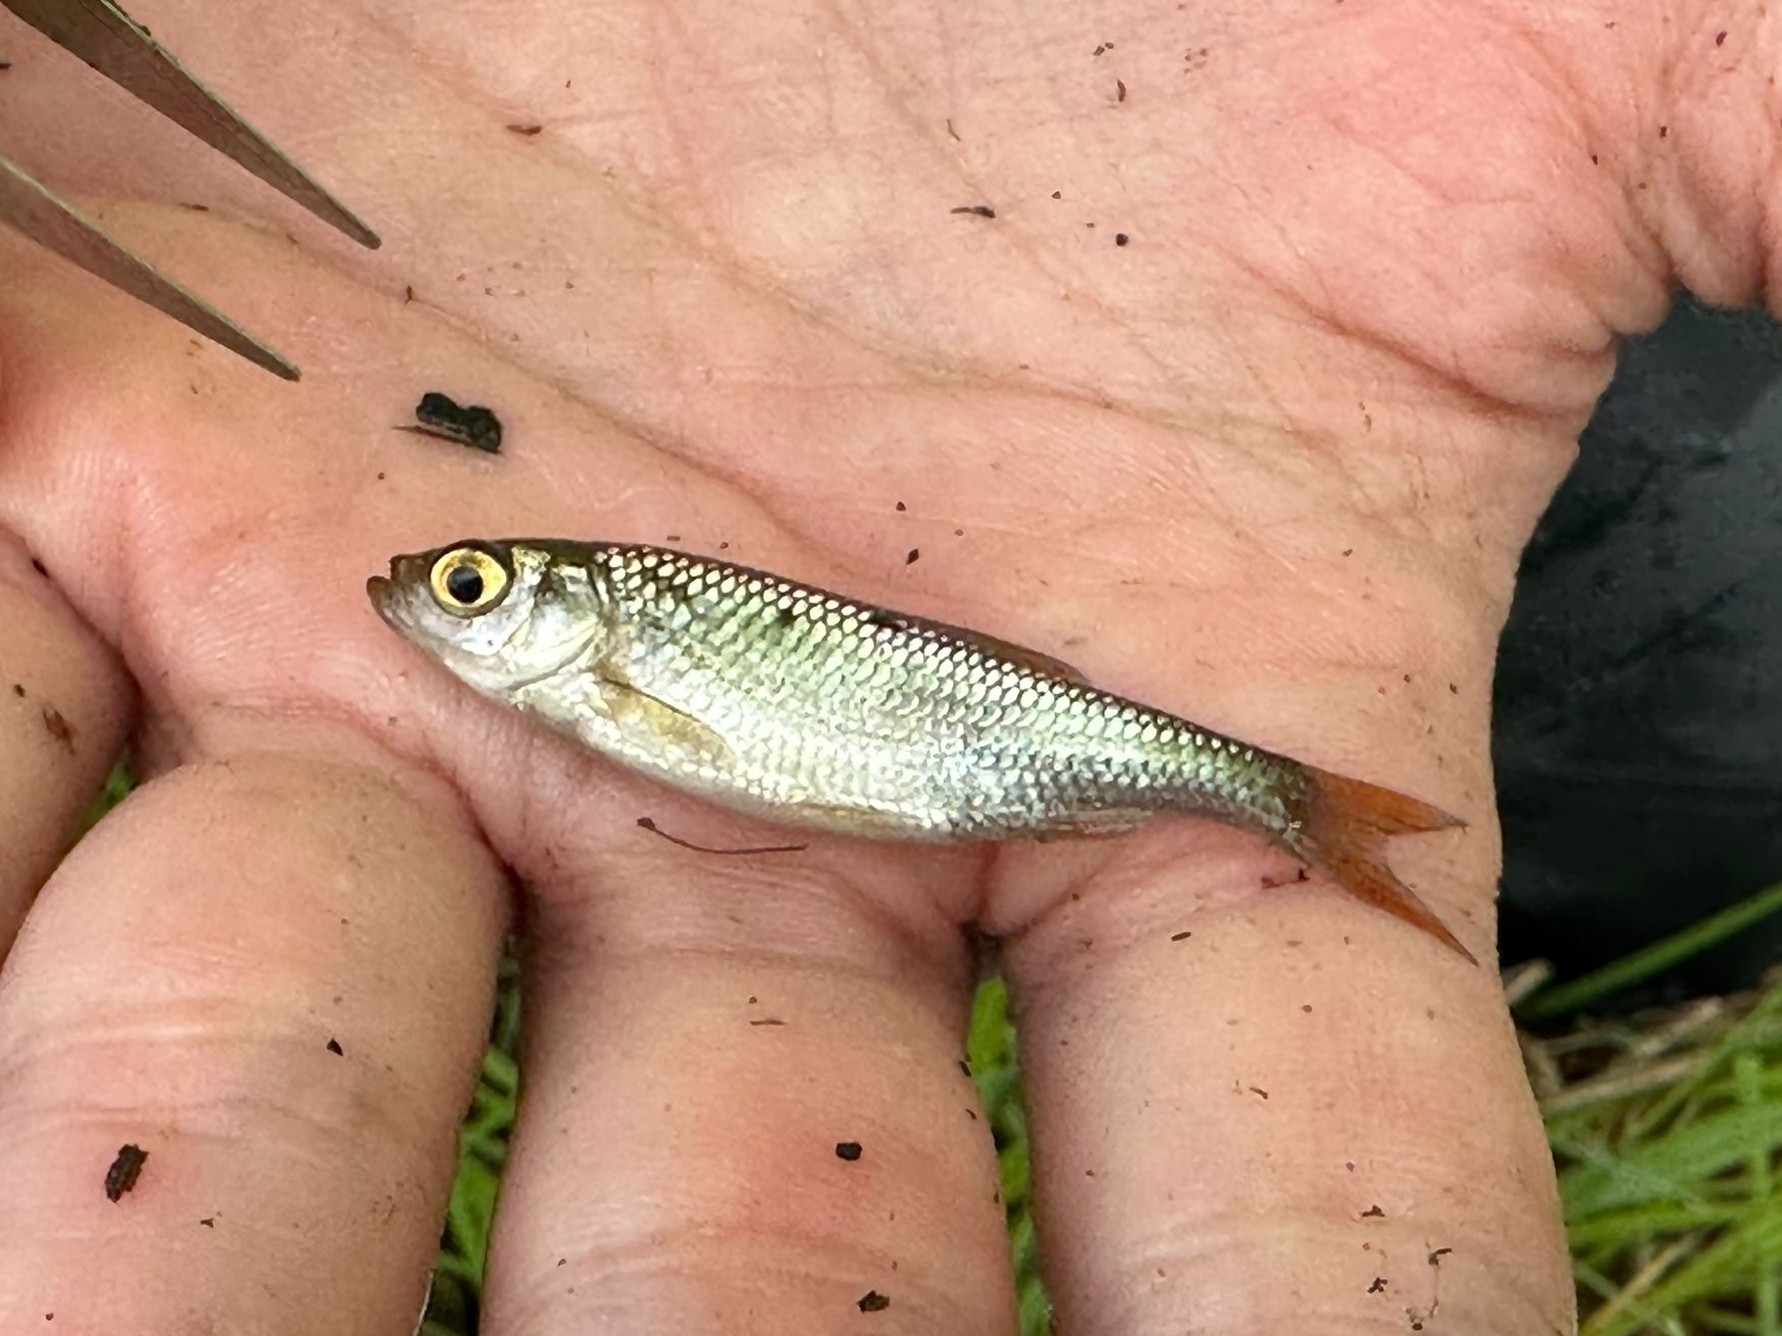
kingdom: Animalia
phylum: Chordata
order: Cypriniformes
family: Cyprinidae
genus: Scardinius
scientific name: Scardinius erythrophthalmus
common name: Rudd
